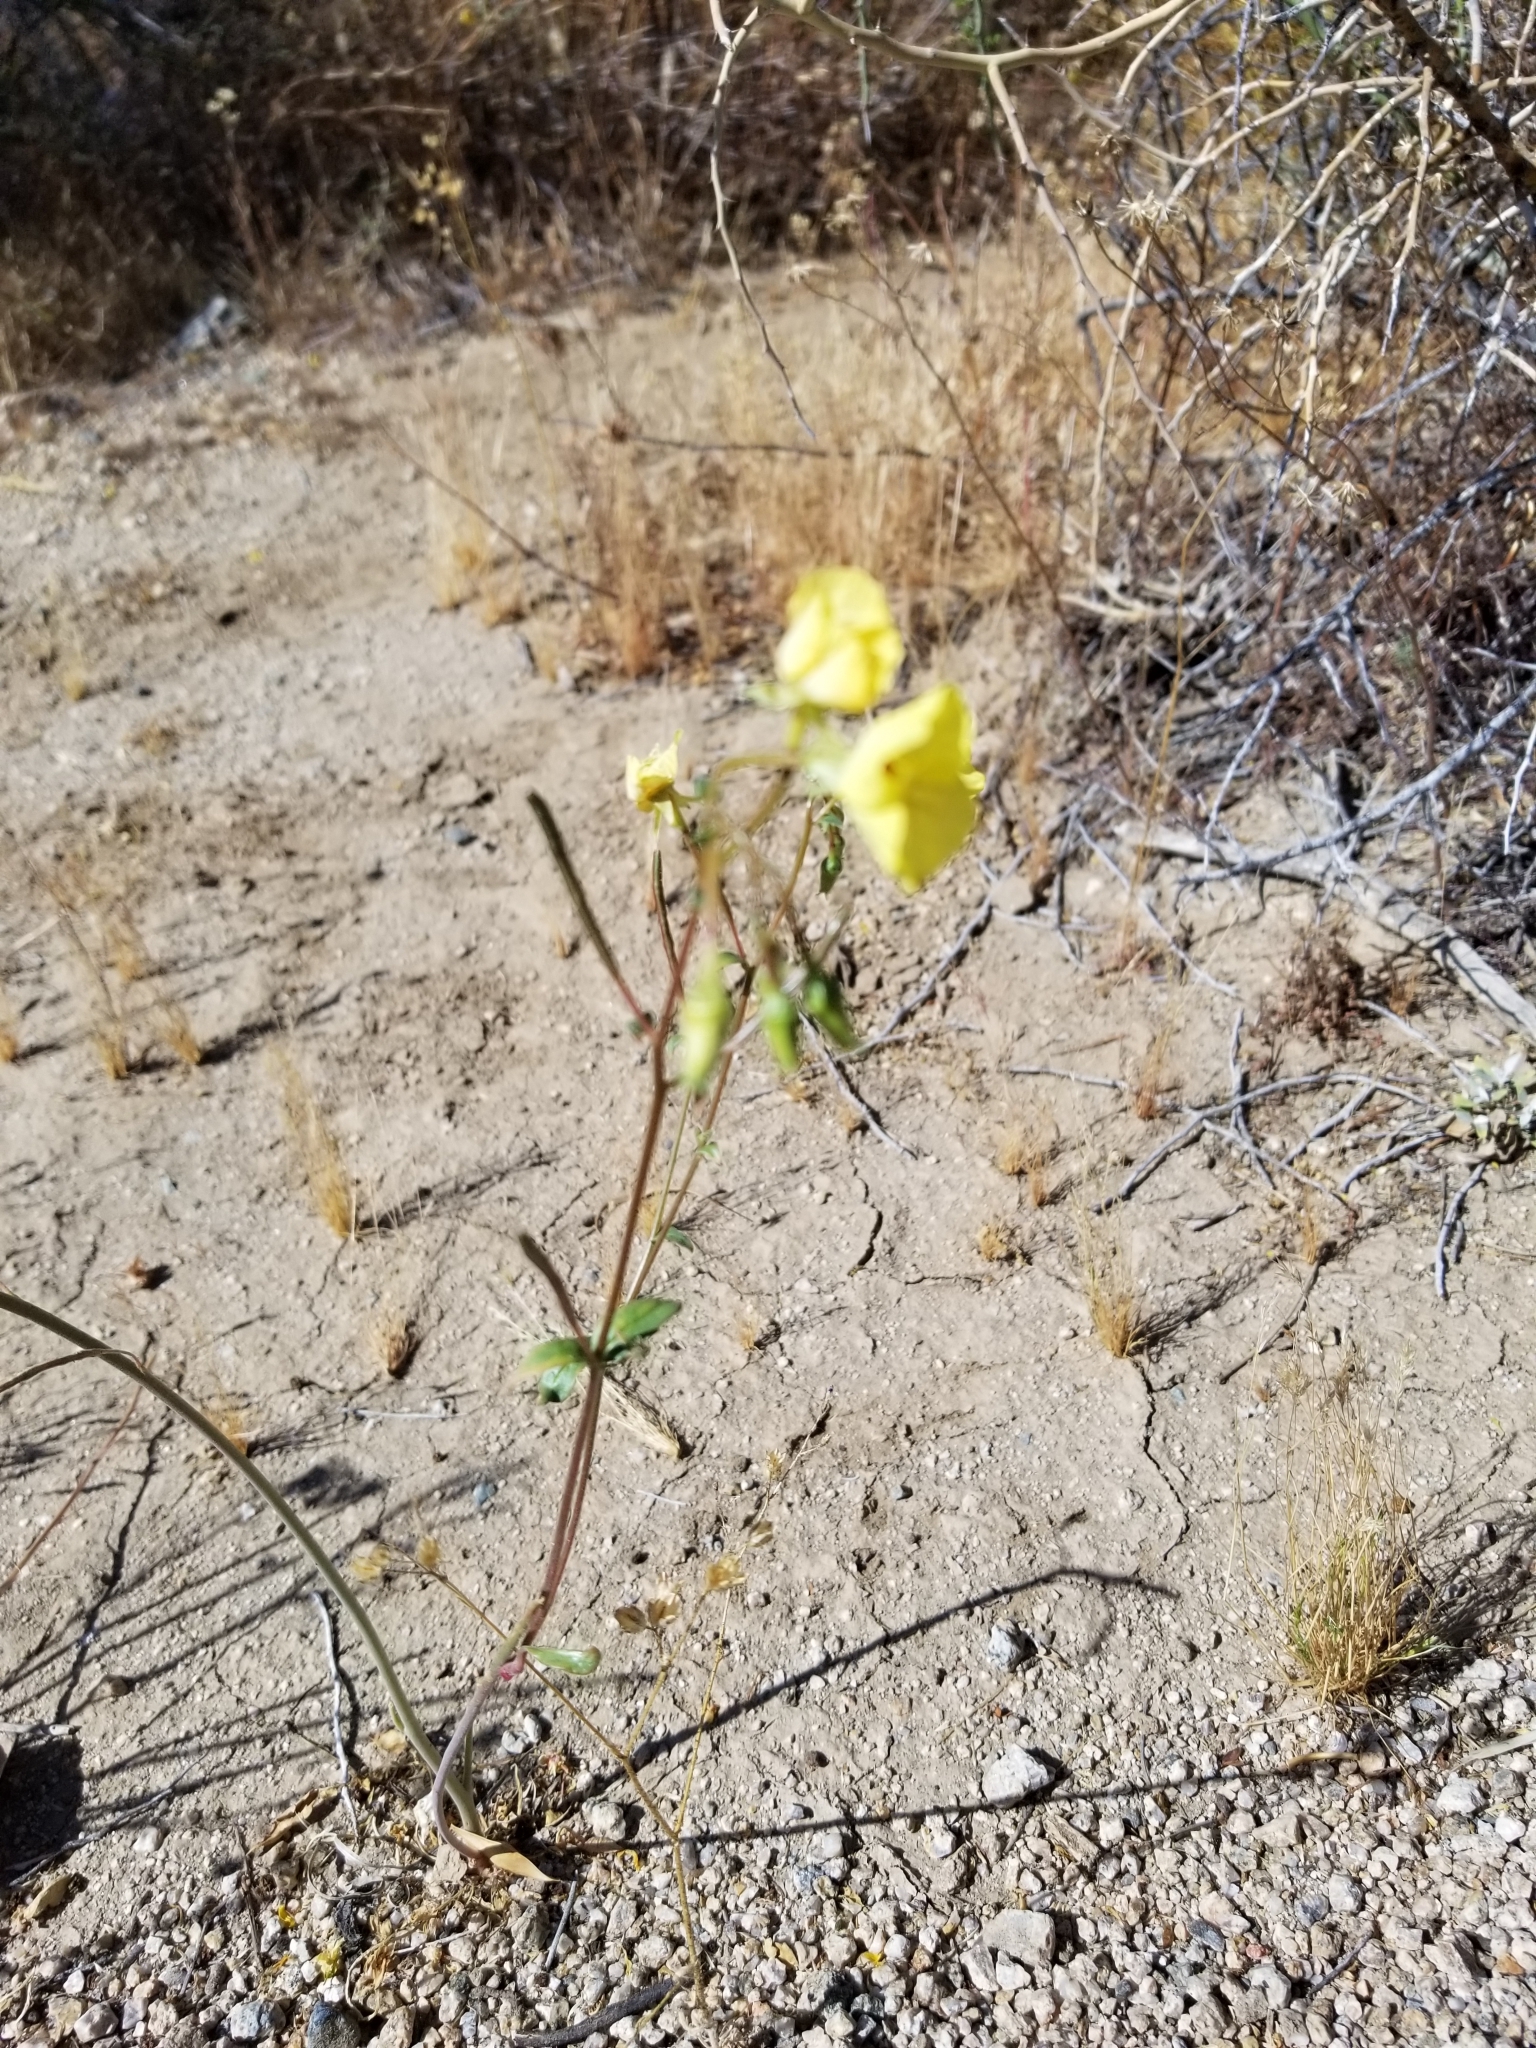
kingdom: Plantae
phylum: Tracheophyta
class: Magnoliopsida
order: Myrtales
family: Onagraceae
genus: Chylismia
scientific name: Chylismia claviformis
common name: Browneyes
